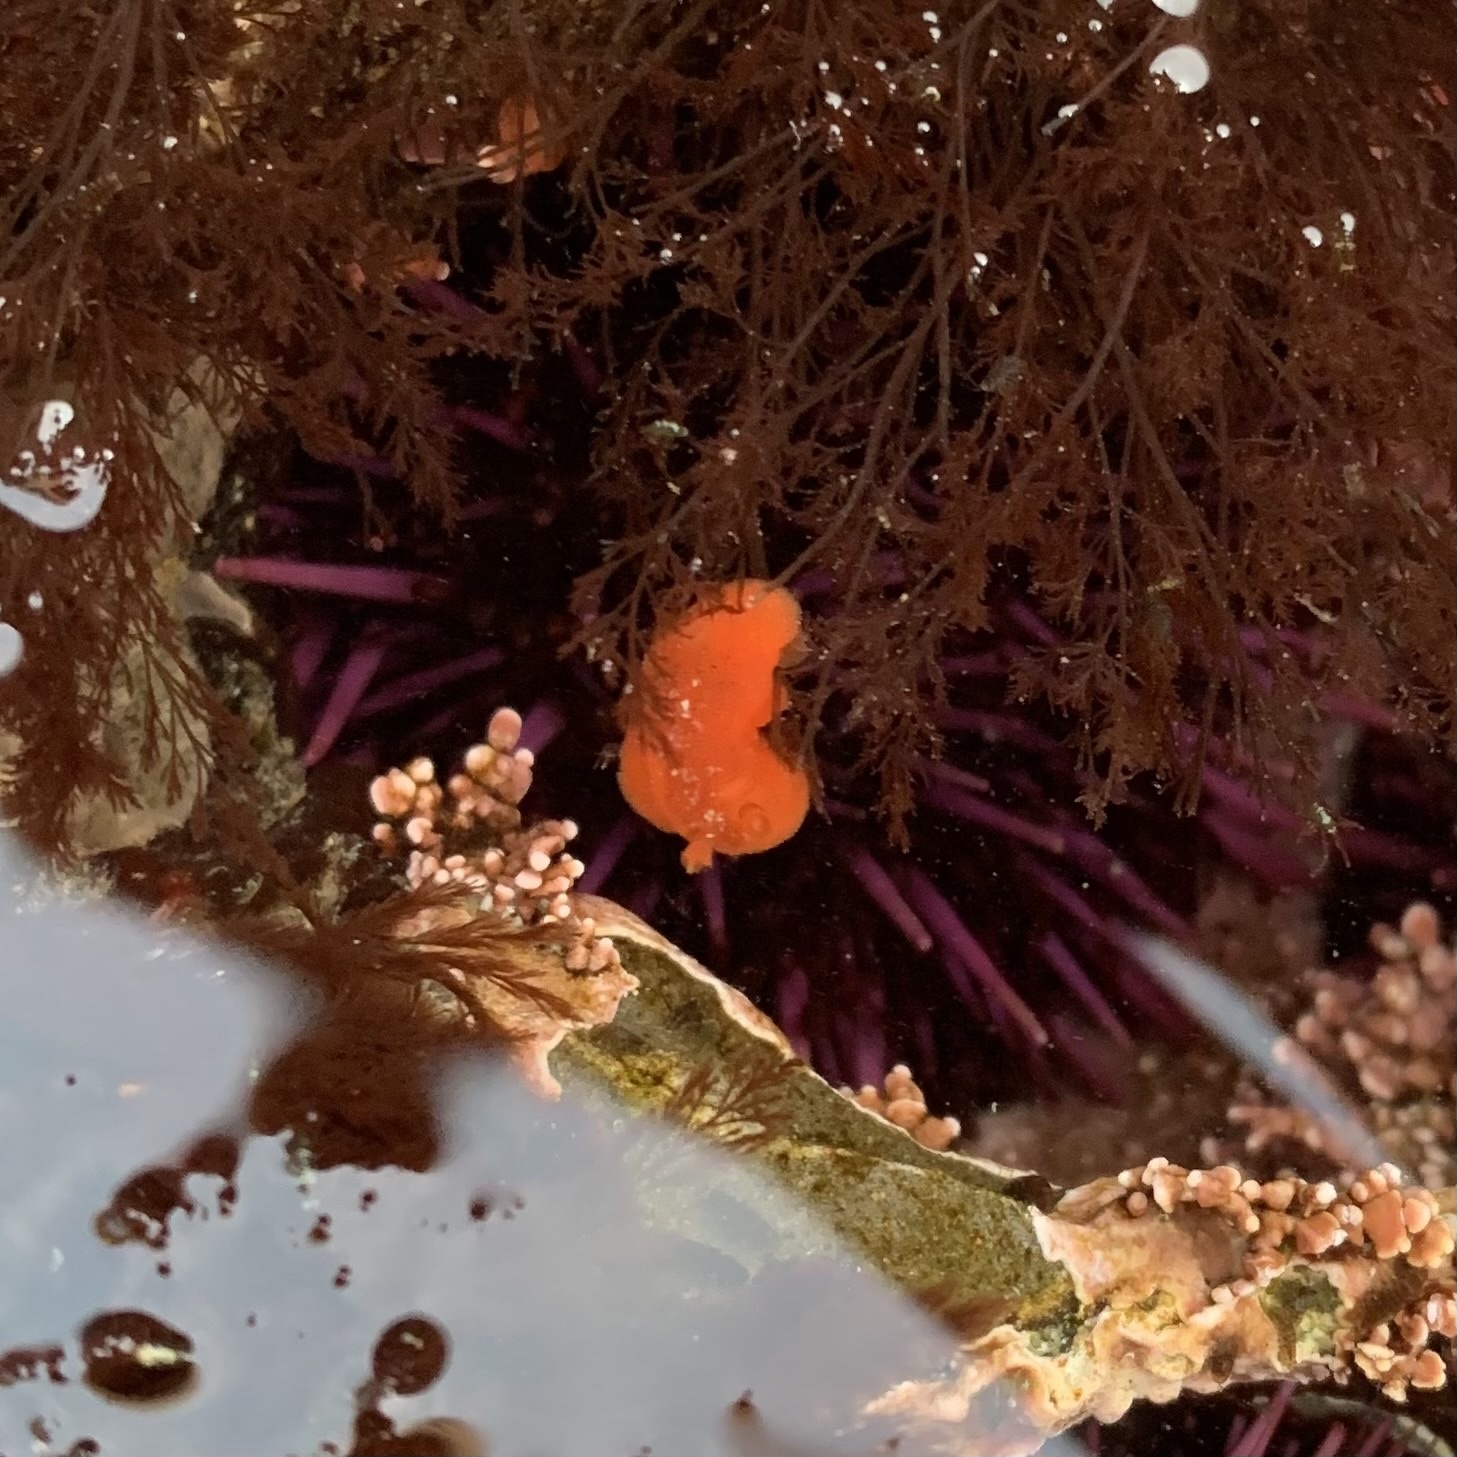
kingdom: Animalia
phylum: Mollusca
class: Gastropoda
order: Nudibranchia
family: Discodorididae
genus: Rostanga
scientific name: Rostanga pulchra
